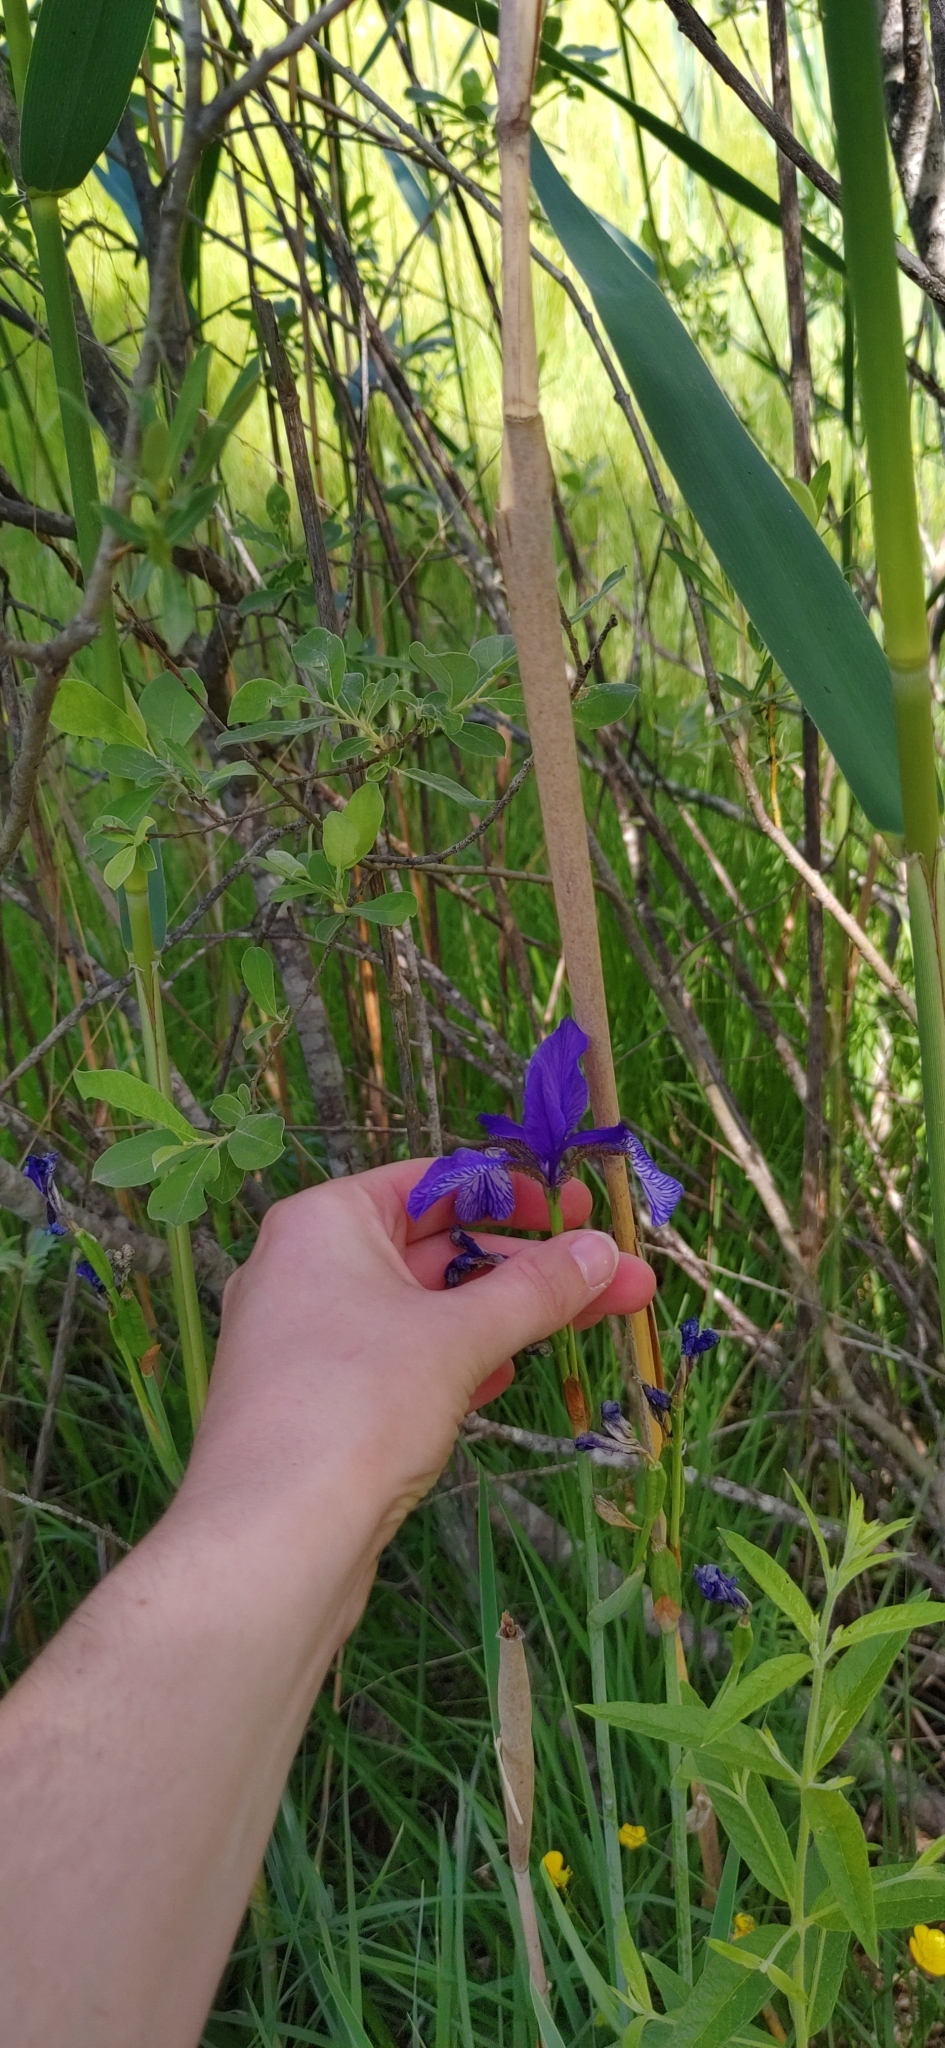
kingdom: Plantae
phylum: Tracheophyta
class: Liliopsida
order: Asparagales
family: Iridaceae
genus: Iris
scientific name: Iris sibirica
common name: Siberian iris
